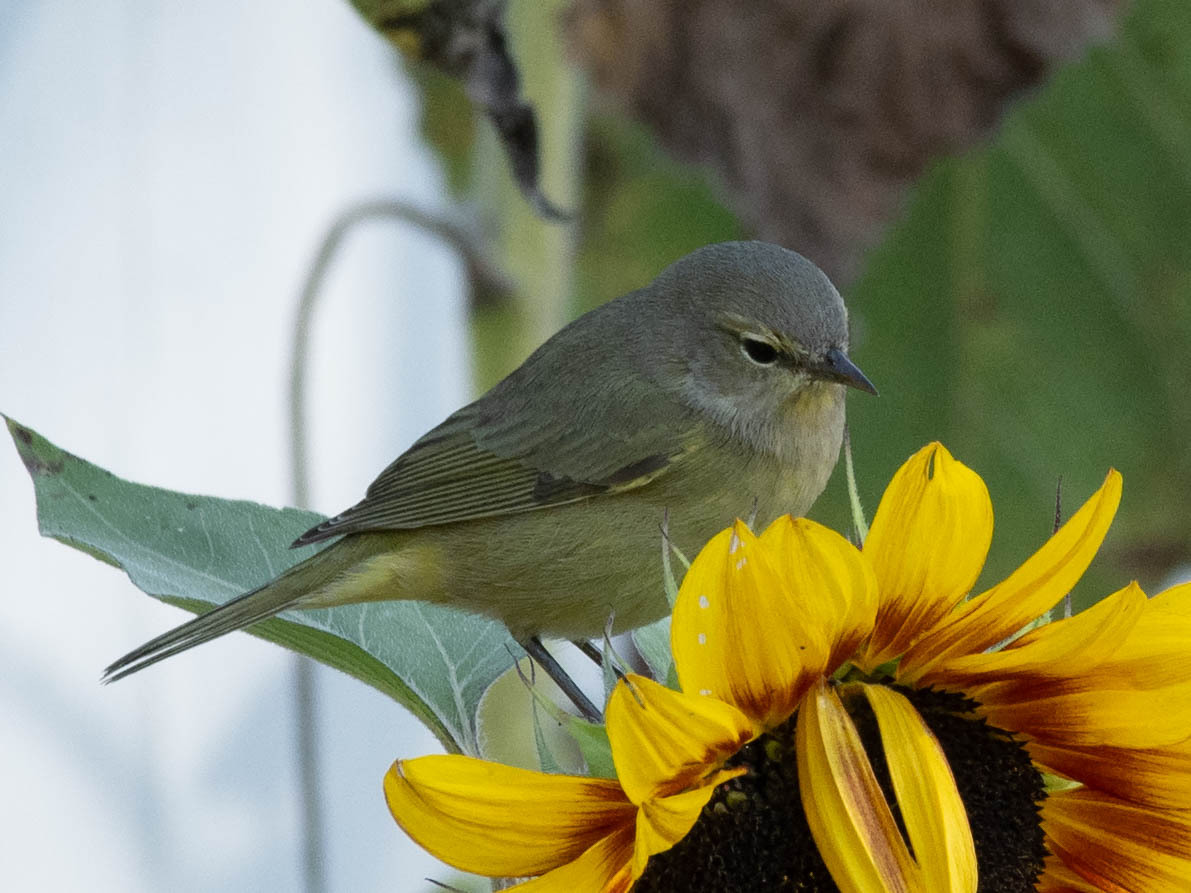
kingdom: Animalia
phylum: Chordata
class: Aves
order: Passeriformes
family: Parulidae
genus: Leiothlypis
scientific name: Leiothlypis celata
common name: Orange-crowned warbler
